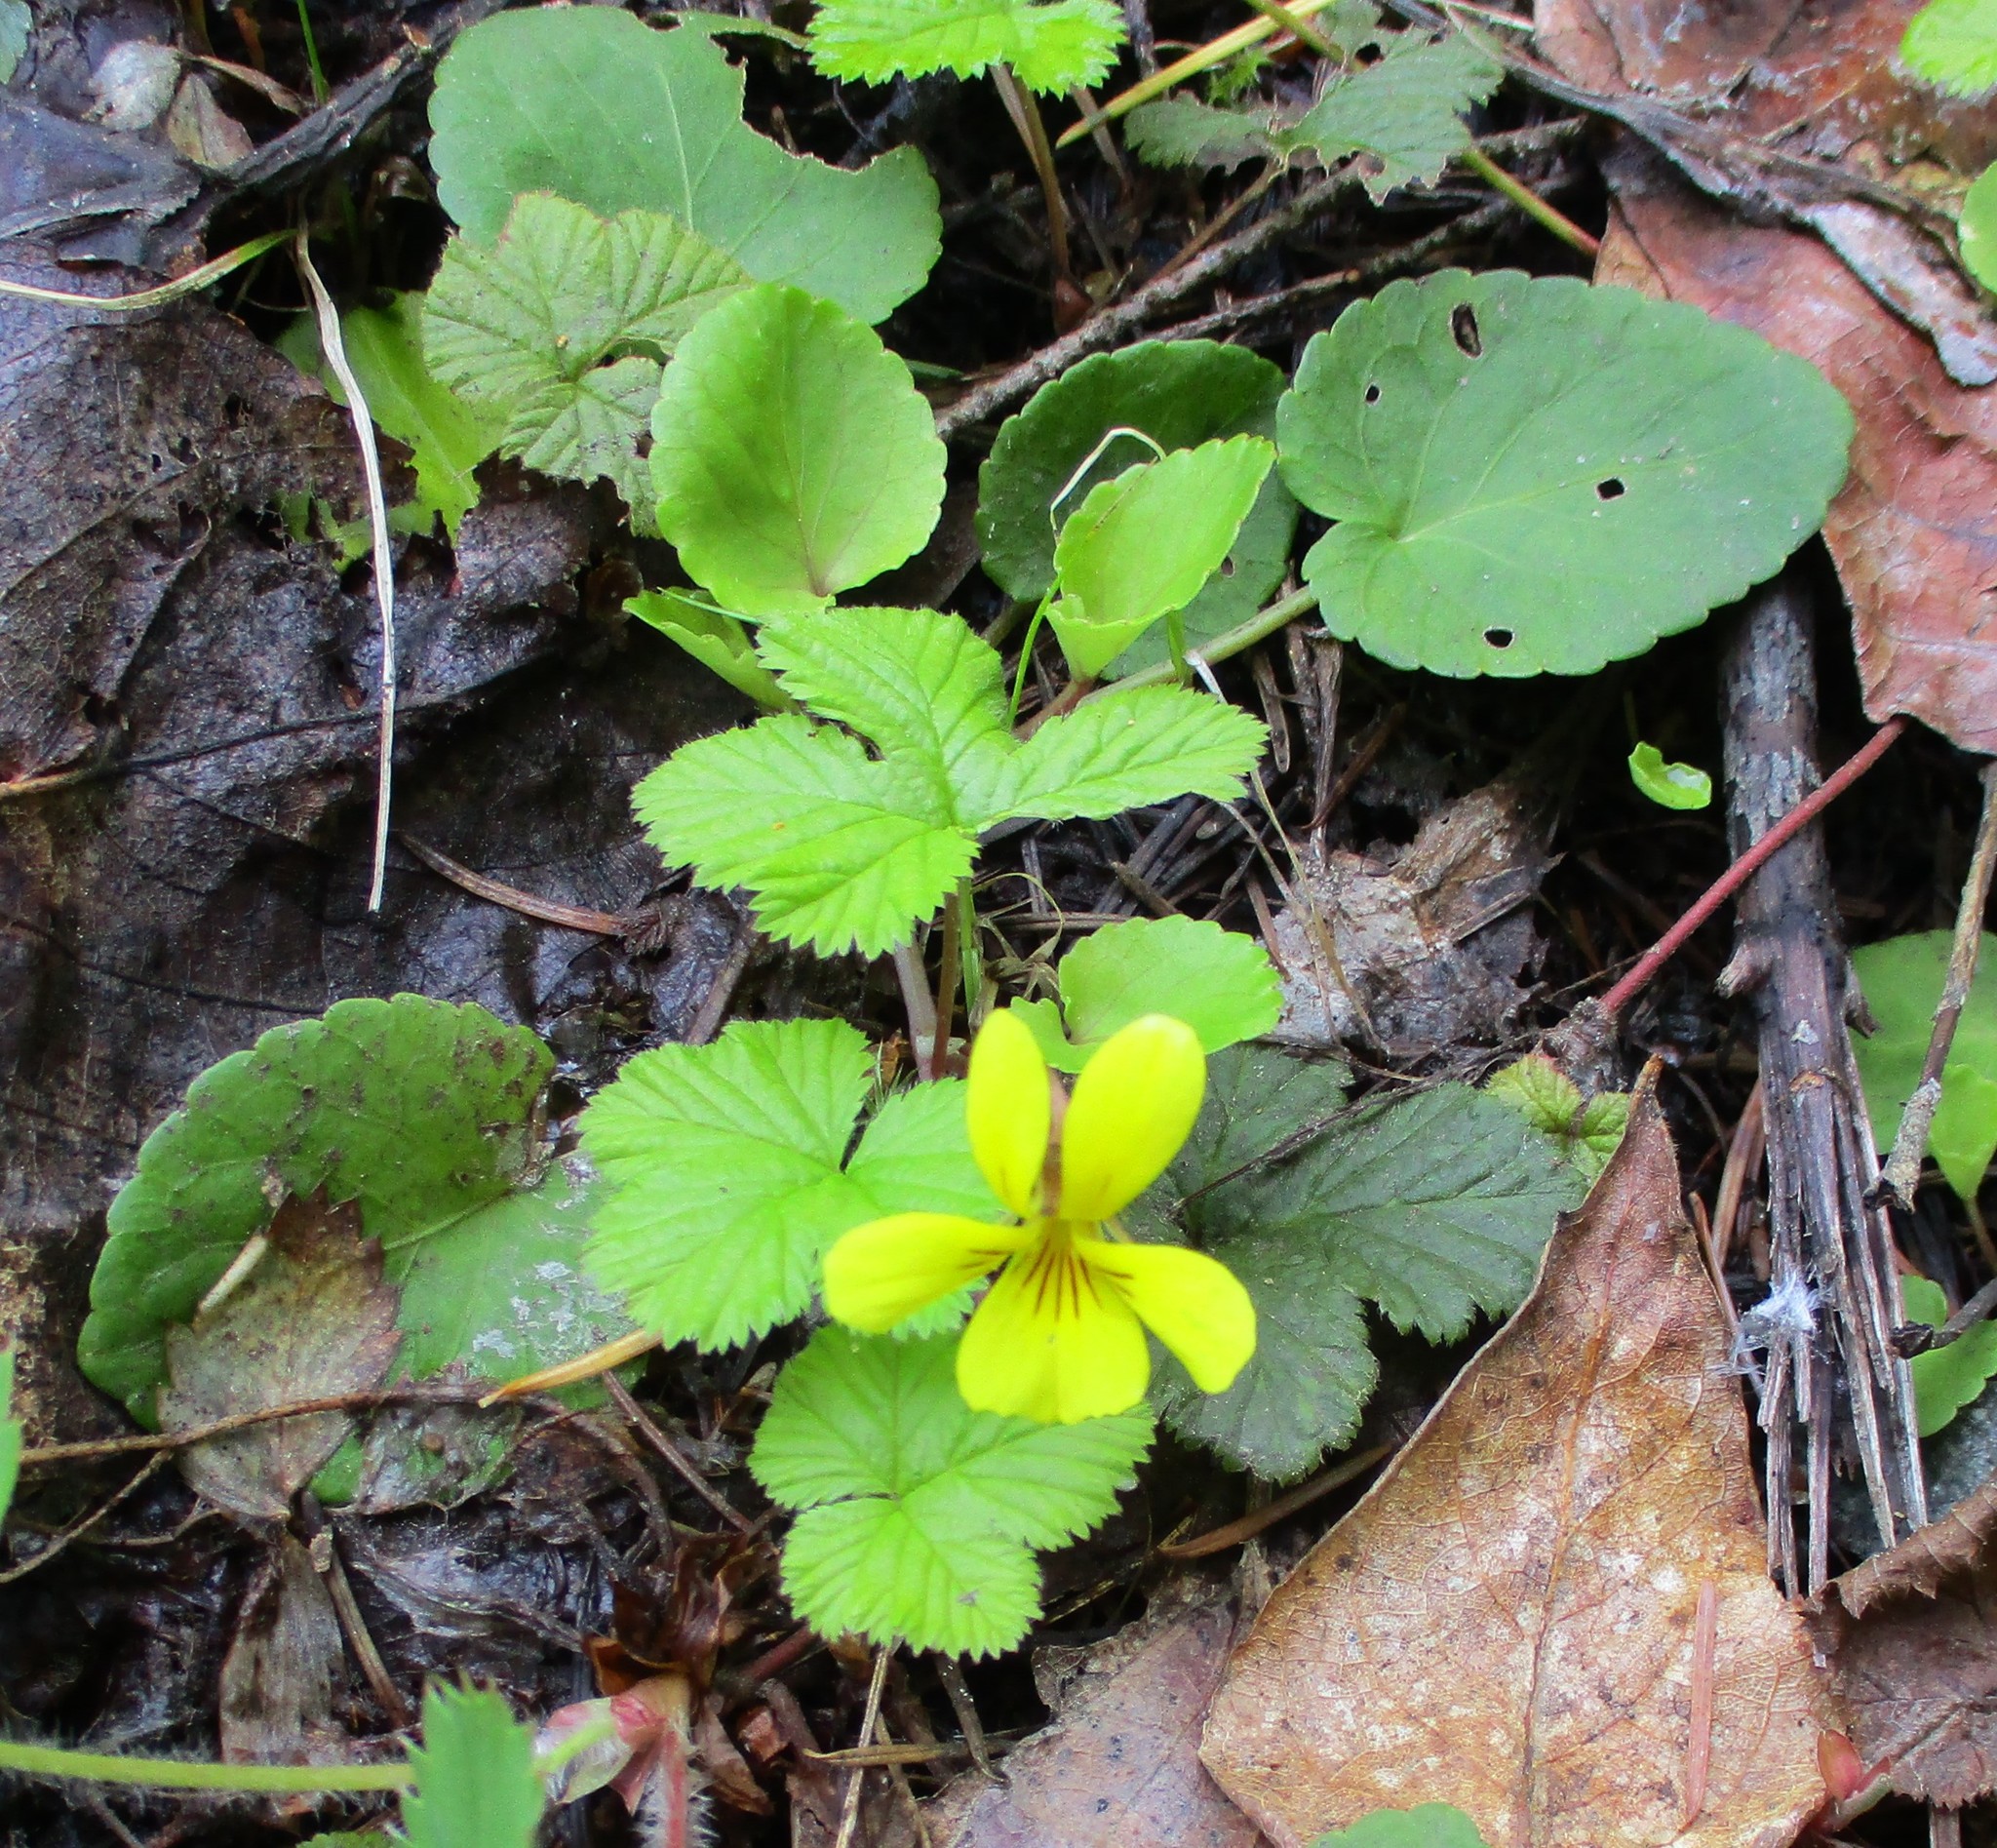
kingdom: Plantae
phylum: Tracheophyta
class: Magnoliopsida
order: Malpighiales
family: Violaceae
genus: Viola
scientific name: Viola sempervirens
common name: Evergreen violet
